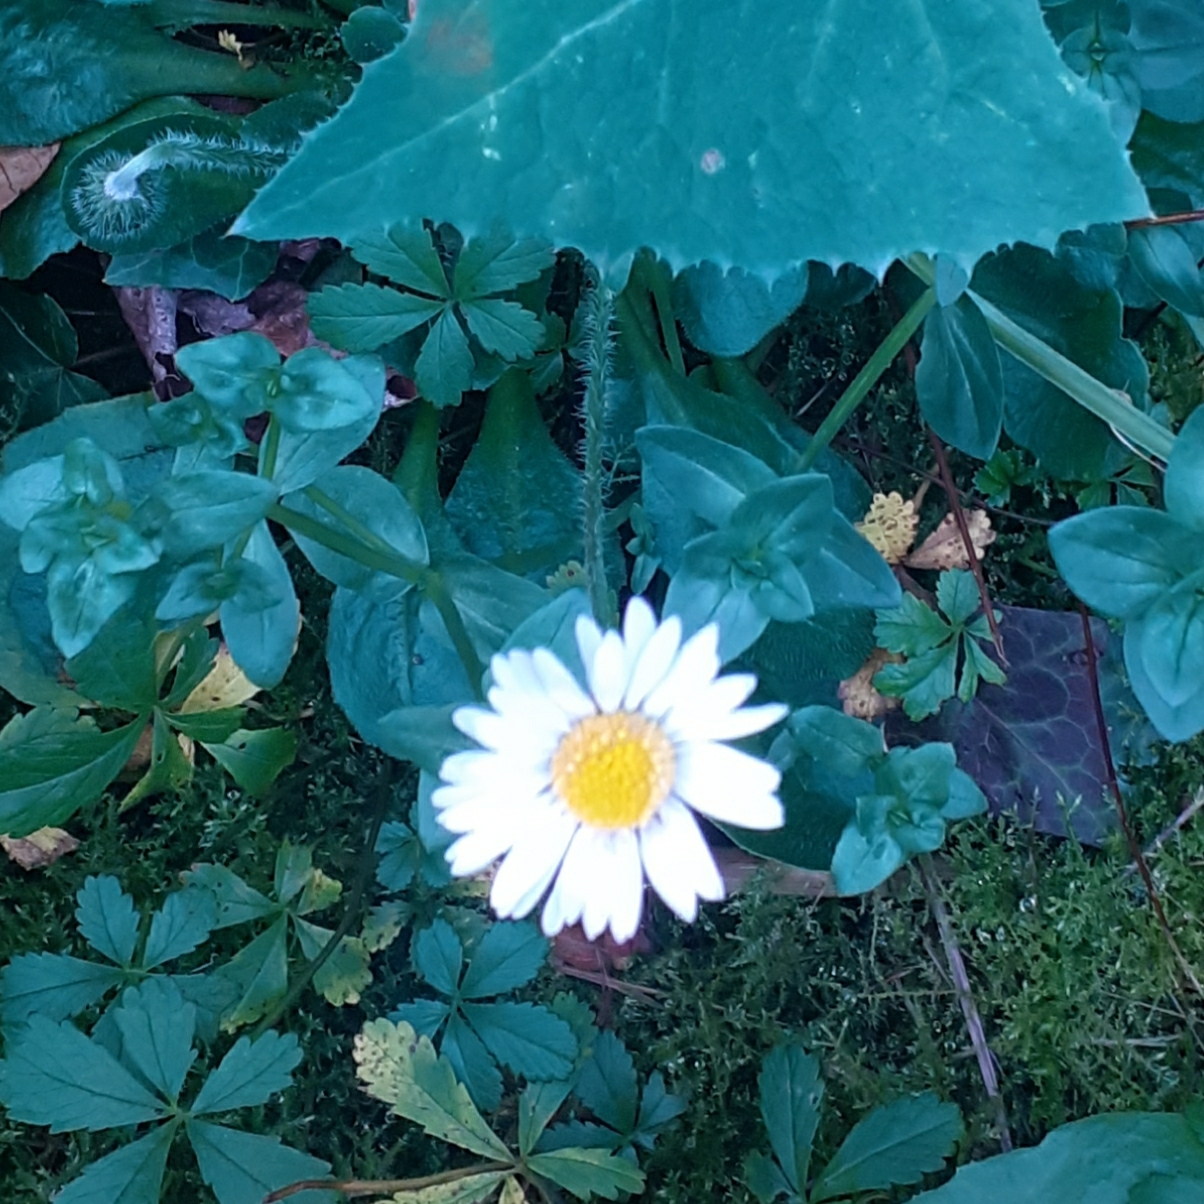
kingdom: Plantae
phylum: Tracheophyta
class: Magnoliopsida
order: Asterales
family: Asteraceae
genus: Bellis
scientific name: Bellis perennis
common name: Lawndaisy
